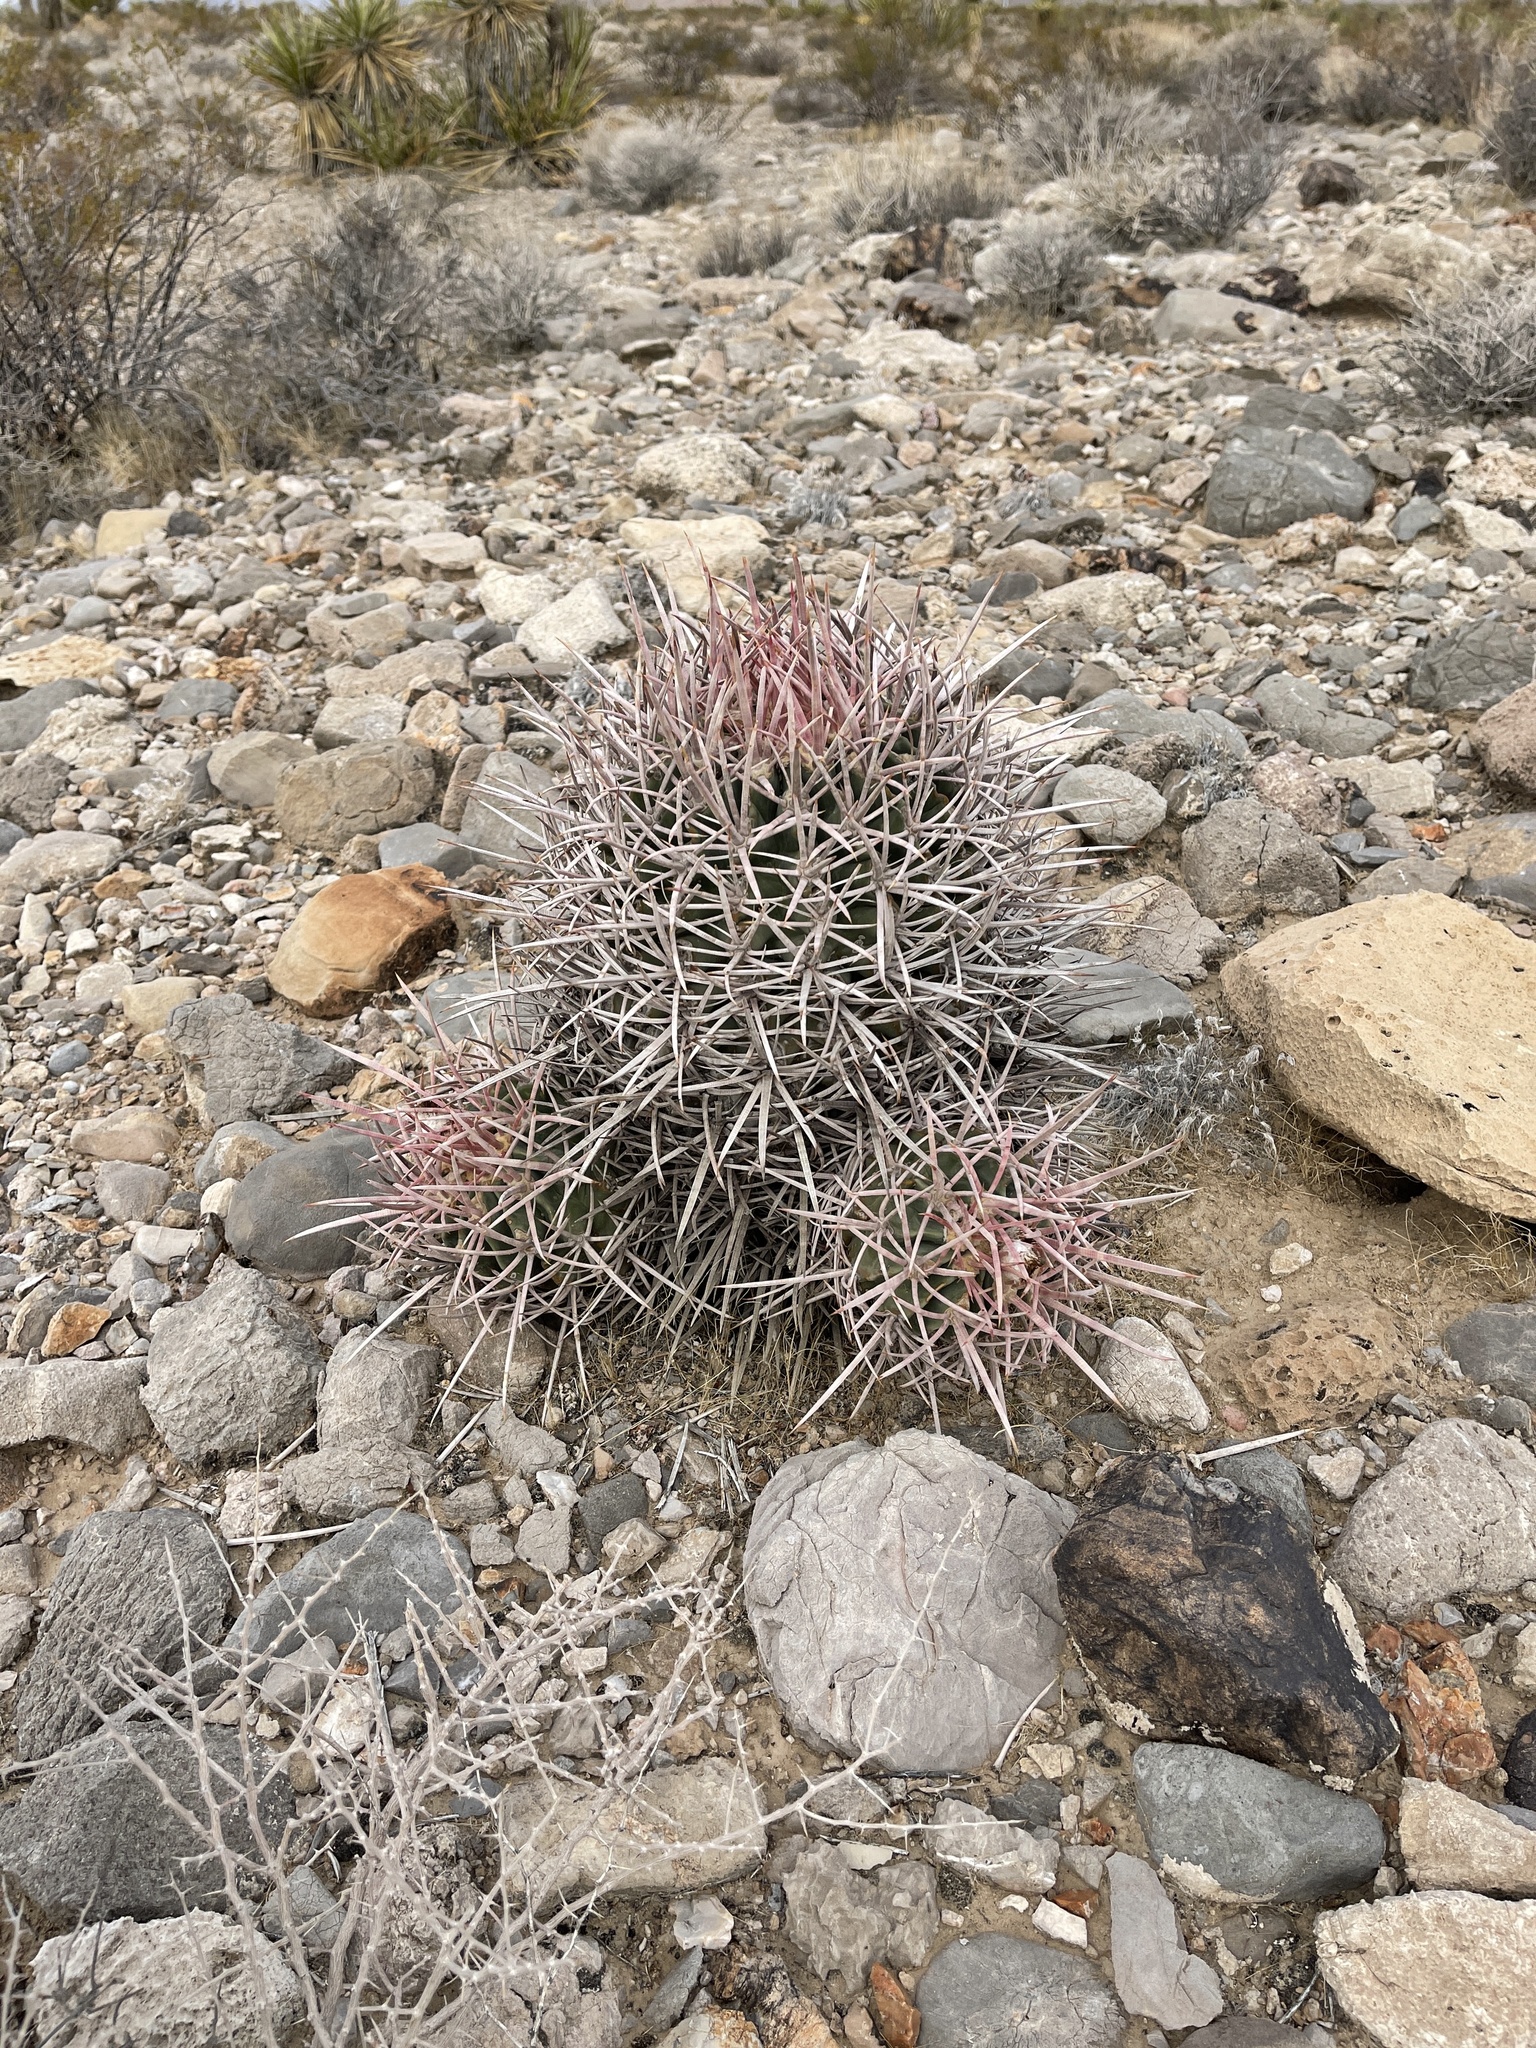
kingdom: Plantae
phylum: Tracheophyta
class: Magnoliopsida
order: Caryophyllales
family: Cactaceae
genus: Echinocactus
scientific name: Echinocactus polycephalus
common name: Cottontop cactus
